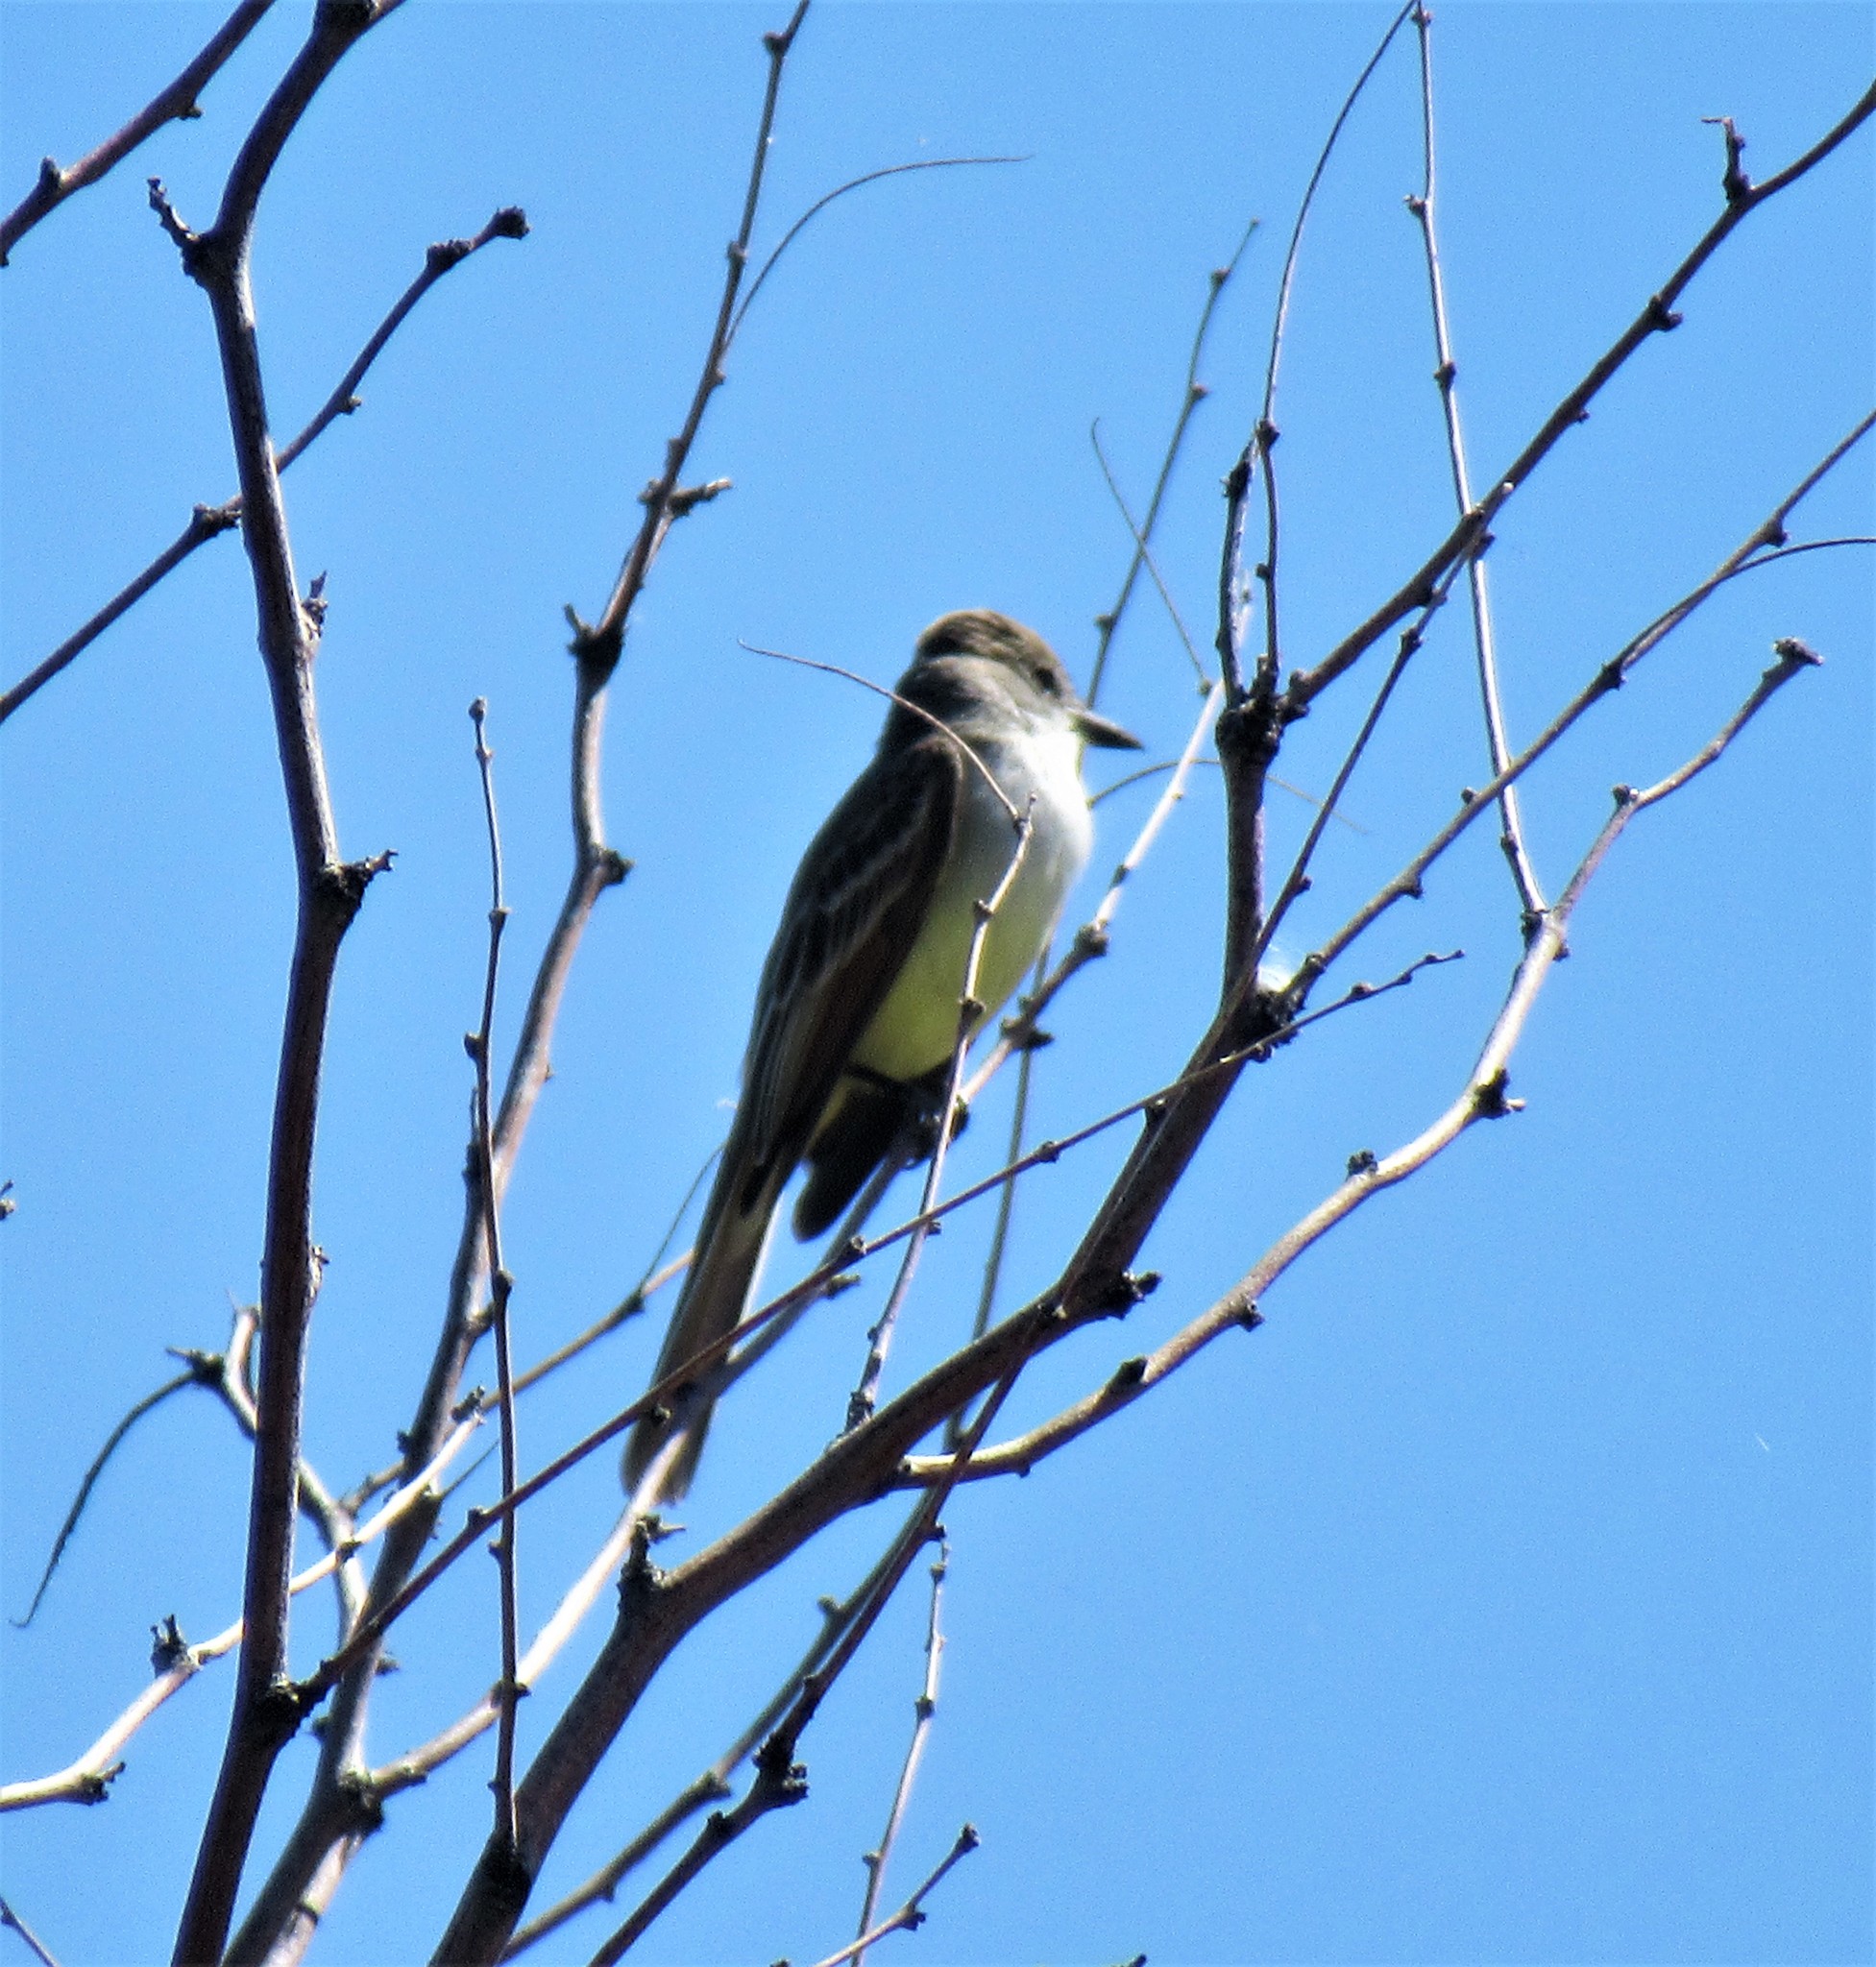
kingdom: Animalia
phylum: Chordata
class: Aves
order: Passeriformes
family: Tyrannidae
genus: Tyrannus
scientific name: Tyrannus verticalis
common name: Western kingbird
